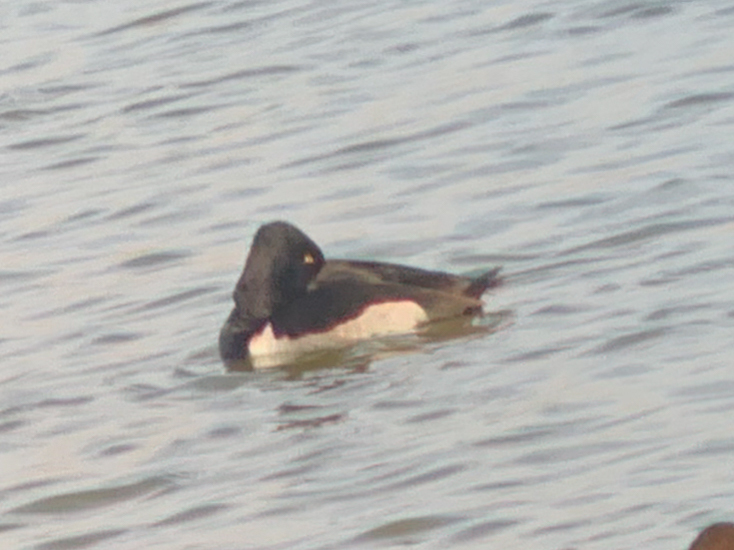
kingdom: Animalia
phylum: Chordata
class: Aves
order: Anseriformes
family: Anatidae
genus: Aythya
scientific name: Aythya collaris
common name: Ring-necked duck
